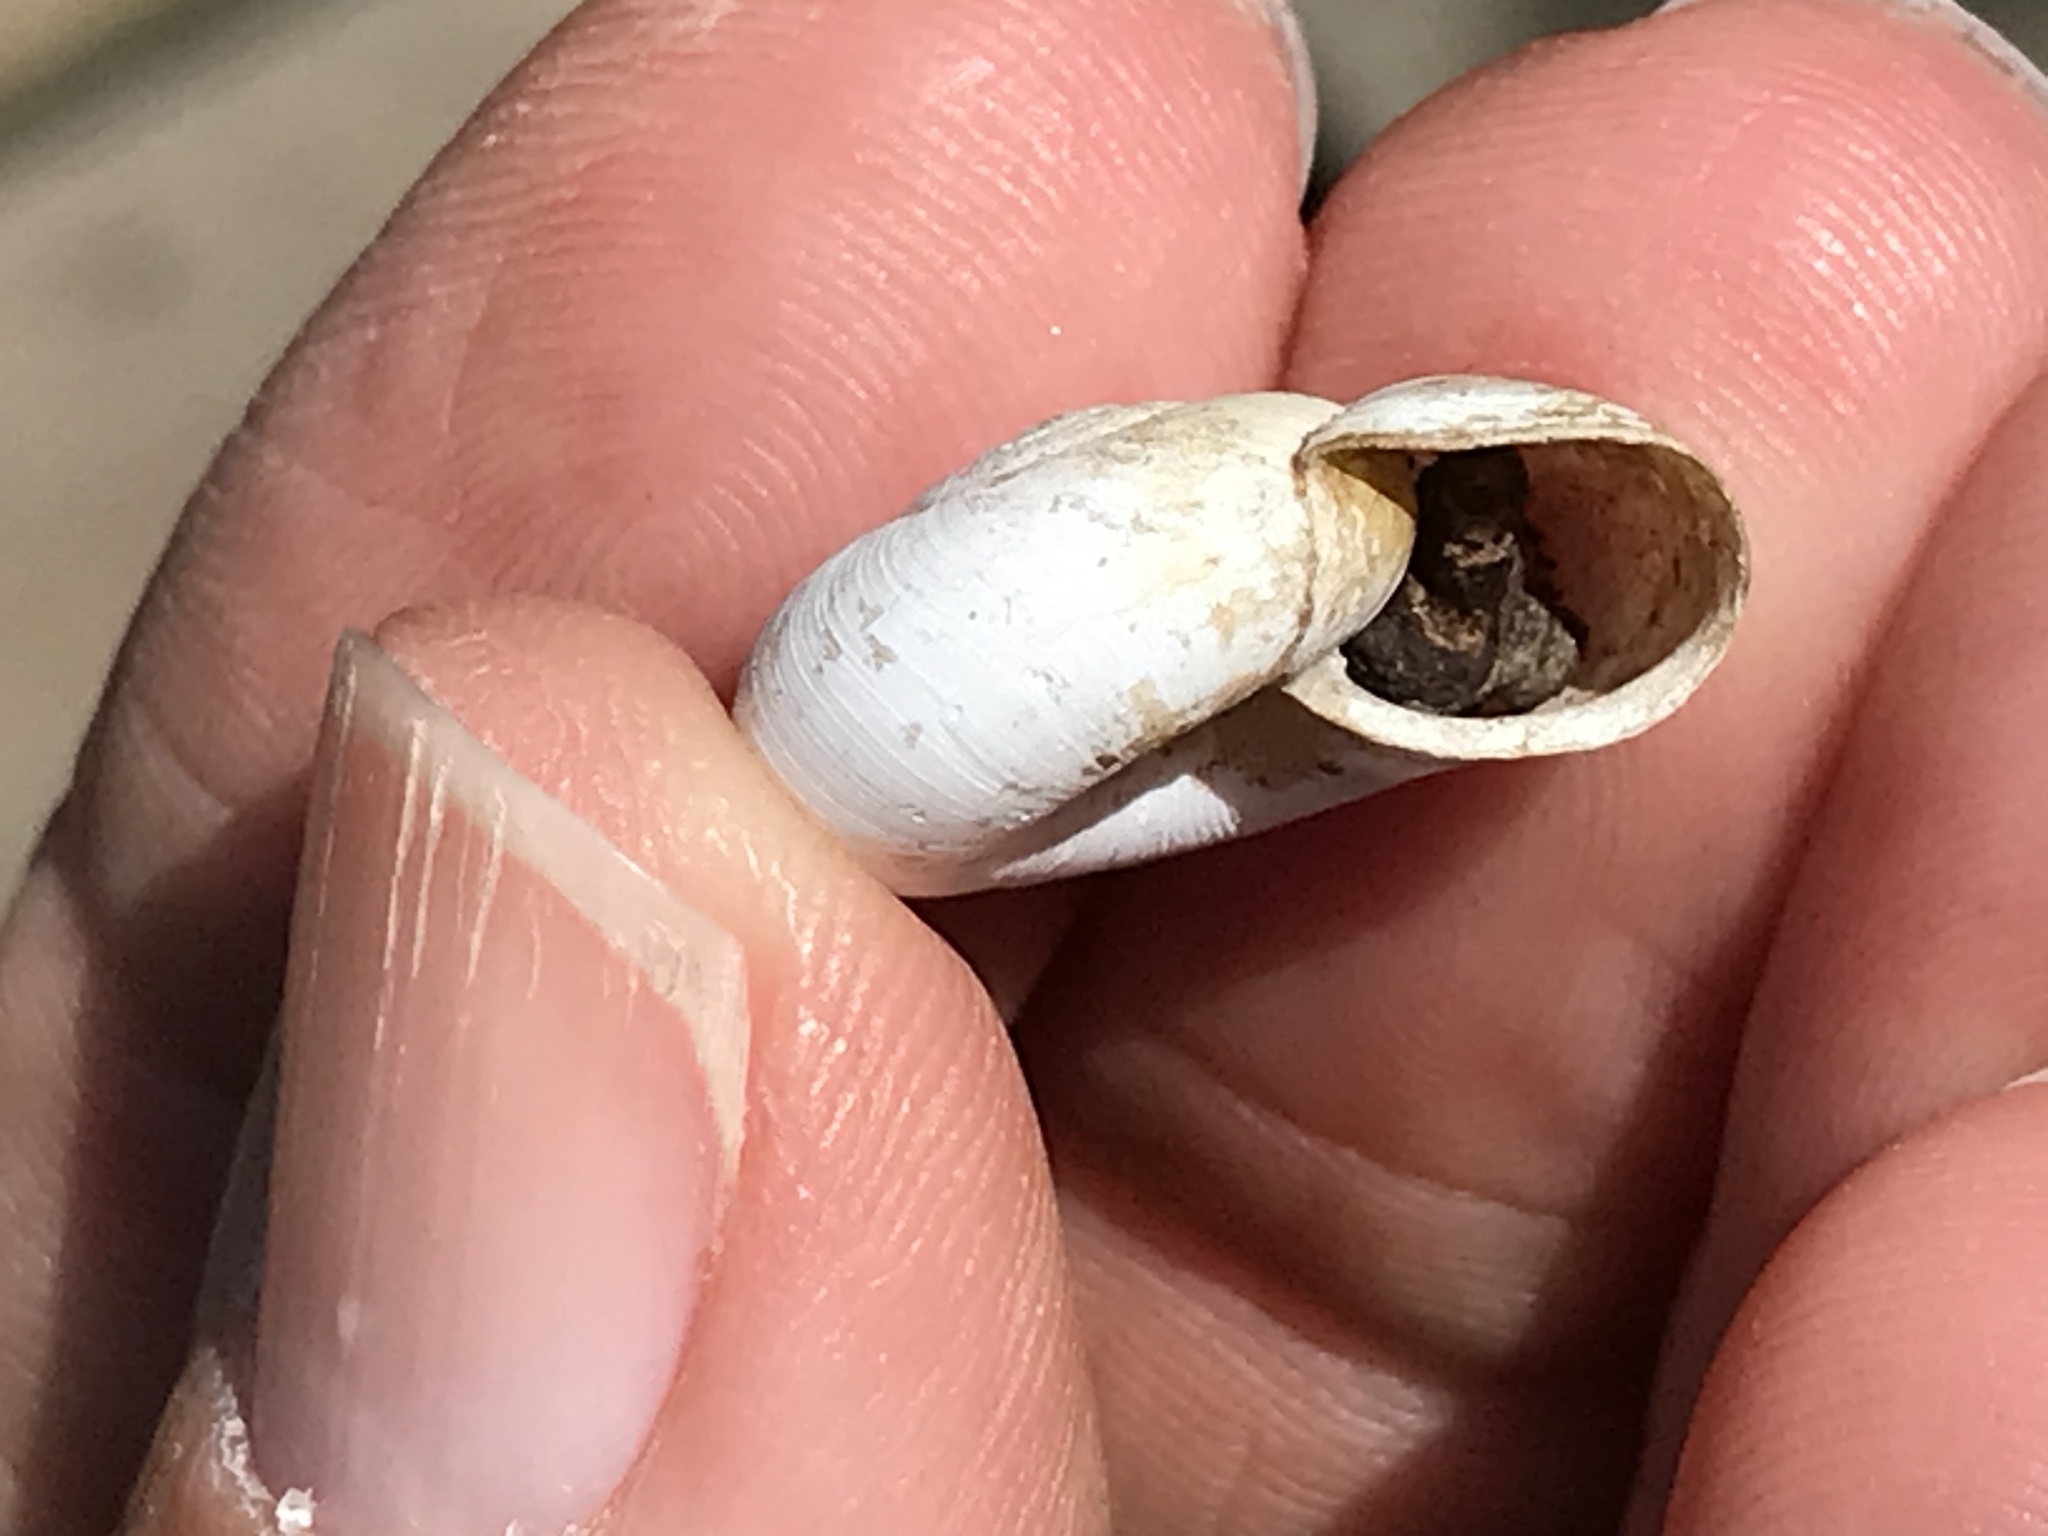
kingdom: Animalia
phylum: Mollusca
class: Gastropoda
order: Stylommatophora
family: Haplotrematidae
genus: Haplotrema
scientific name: Haplotrema minimum
